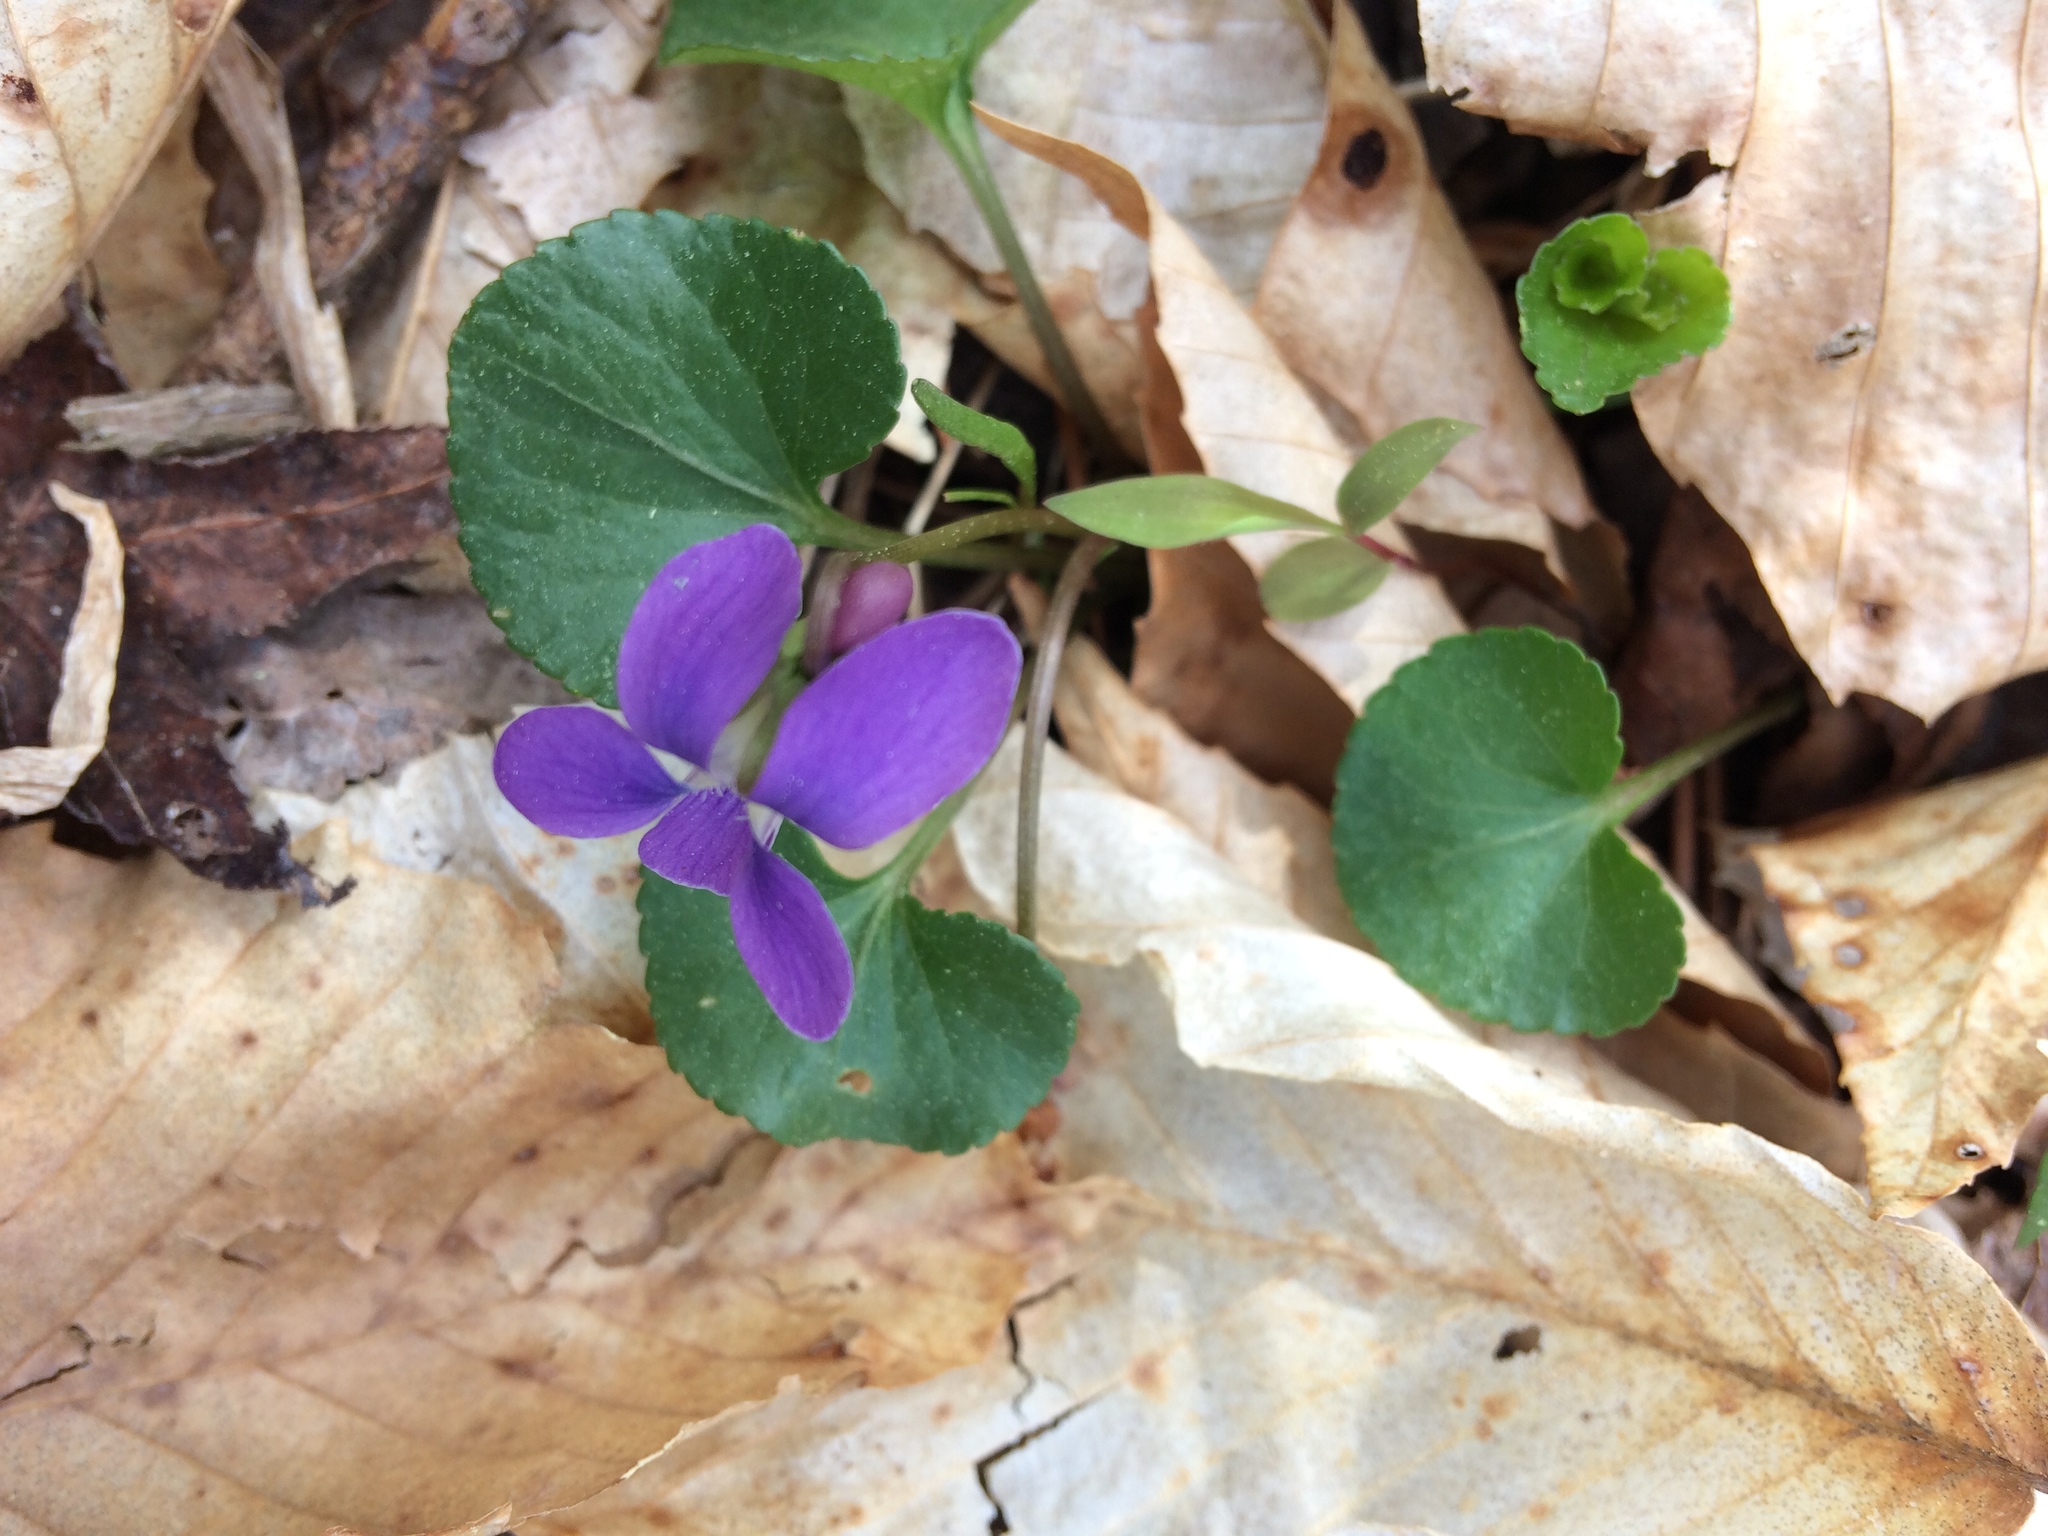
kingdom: Plantae
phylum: Tracheophyta
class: Magnoliopsida
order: Malpighiales
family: Violaceae
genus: Viola
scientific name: Viola sororia
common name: Dooryard violet
